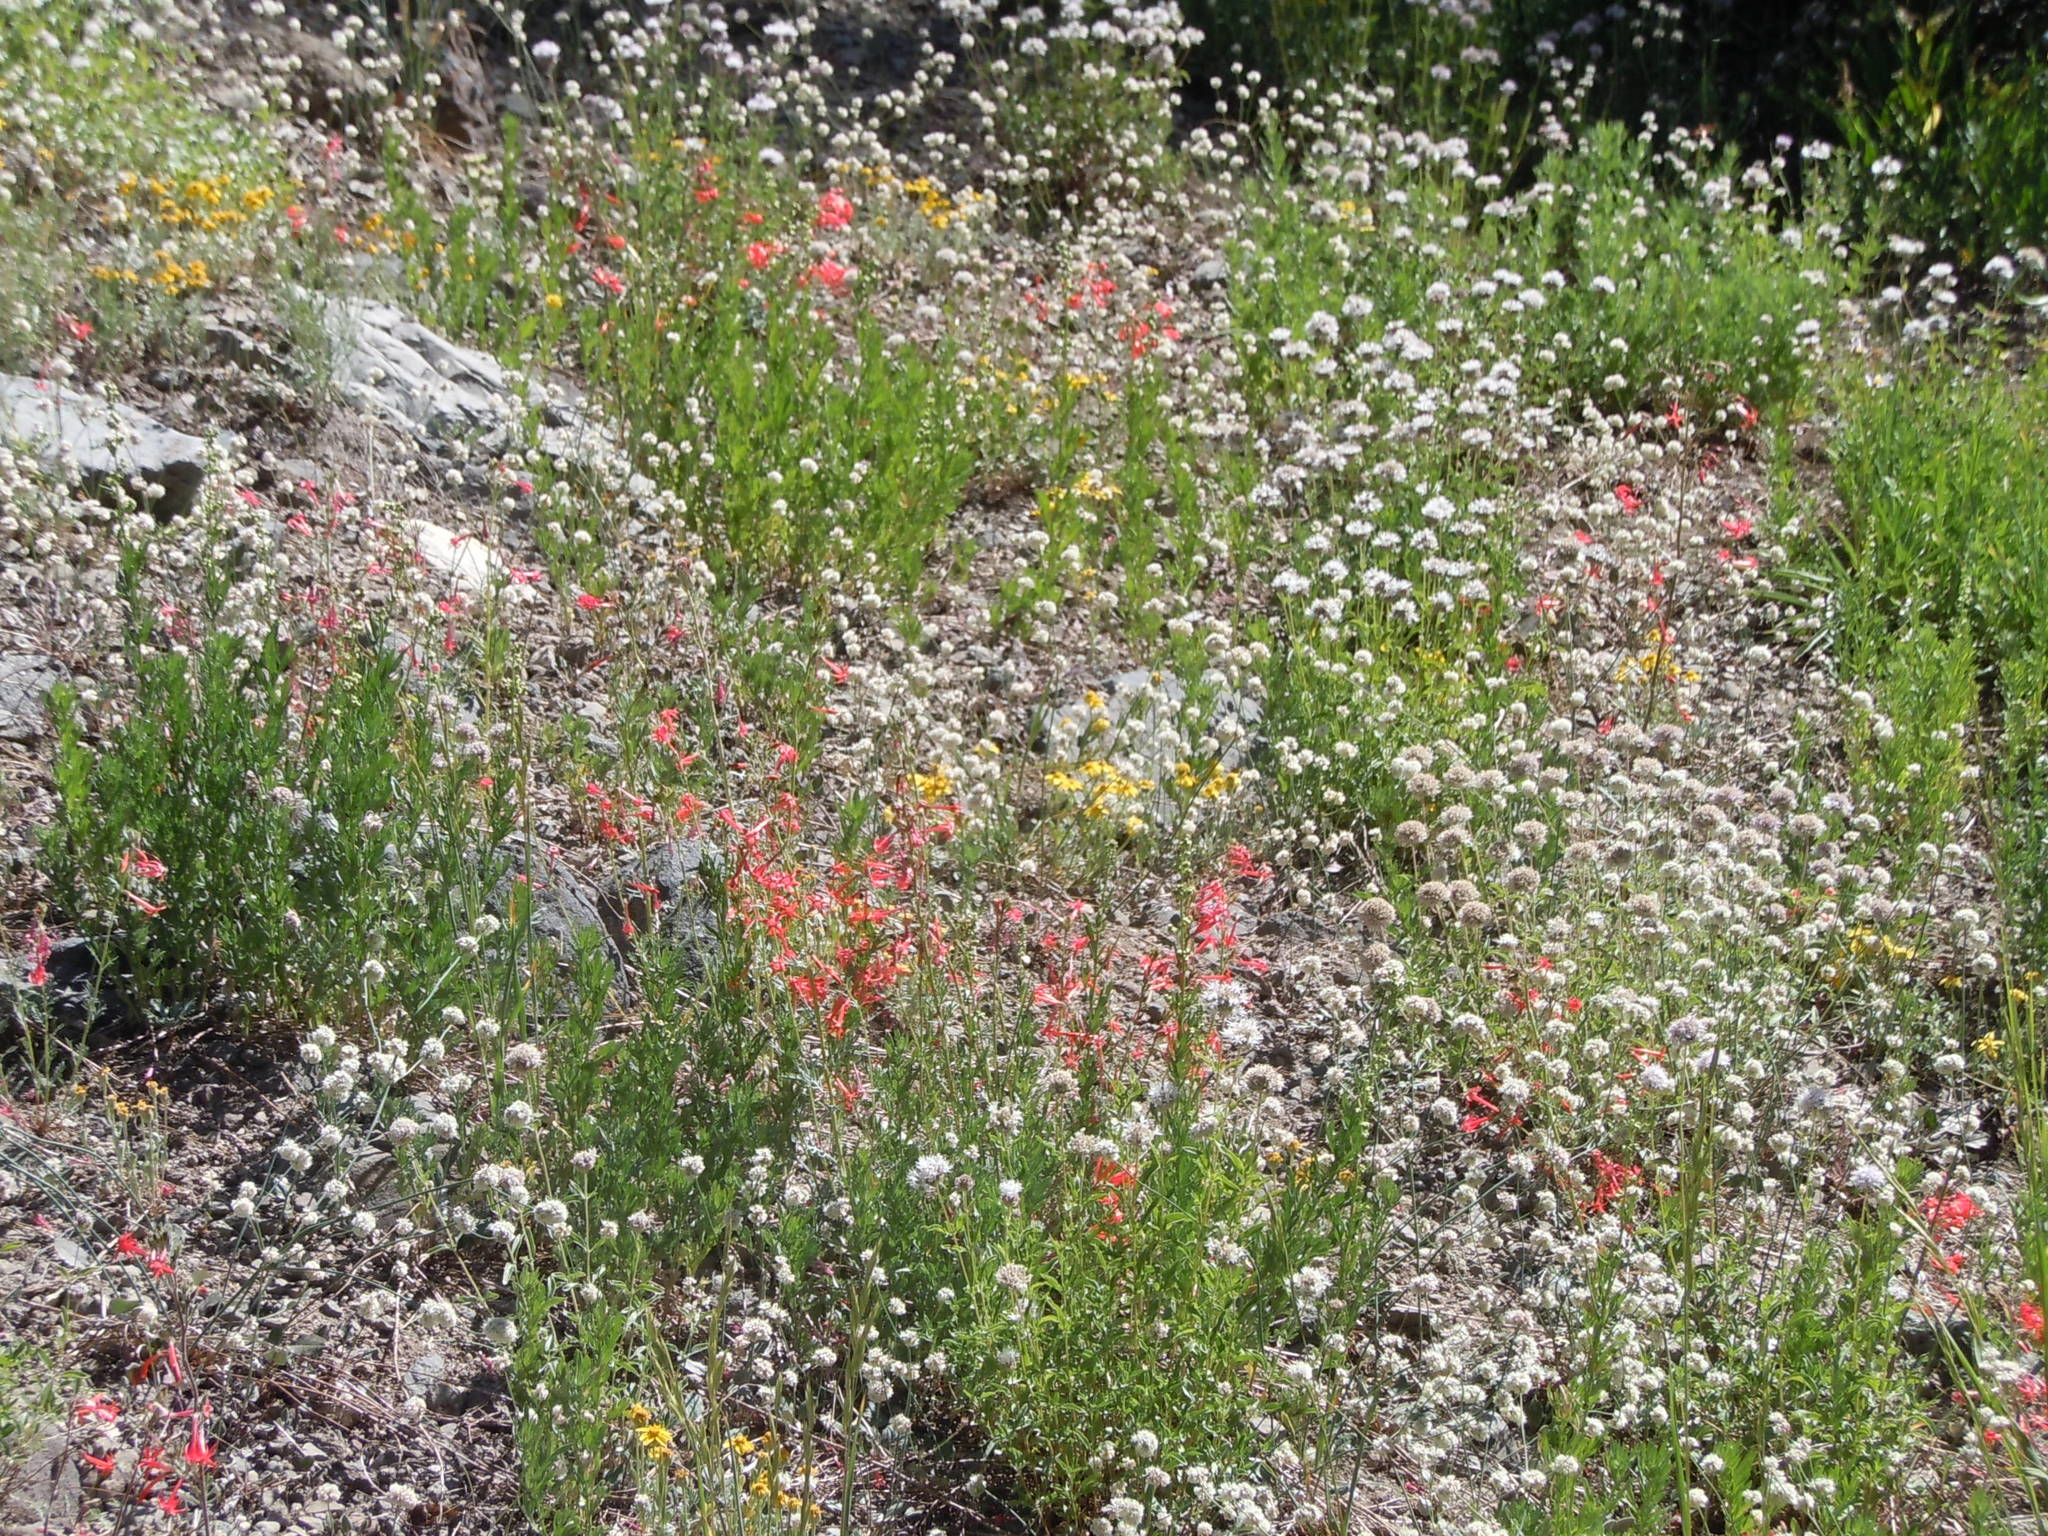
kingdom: Plantae
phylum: Tracheophyta
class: Magnoliopsida
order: Ericales
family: Polemoniaceae
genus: Ipomopsis
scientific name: Ipomopsis aggregata
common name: Scarlet gilia
